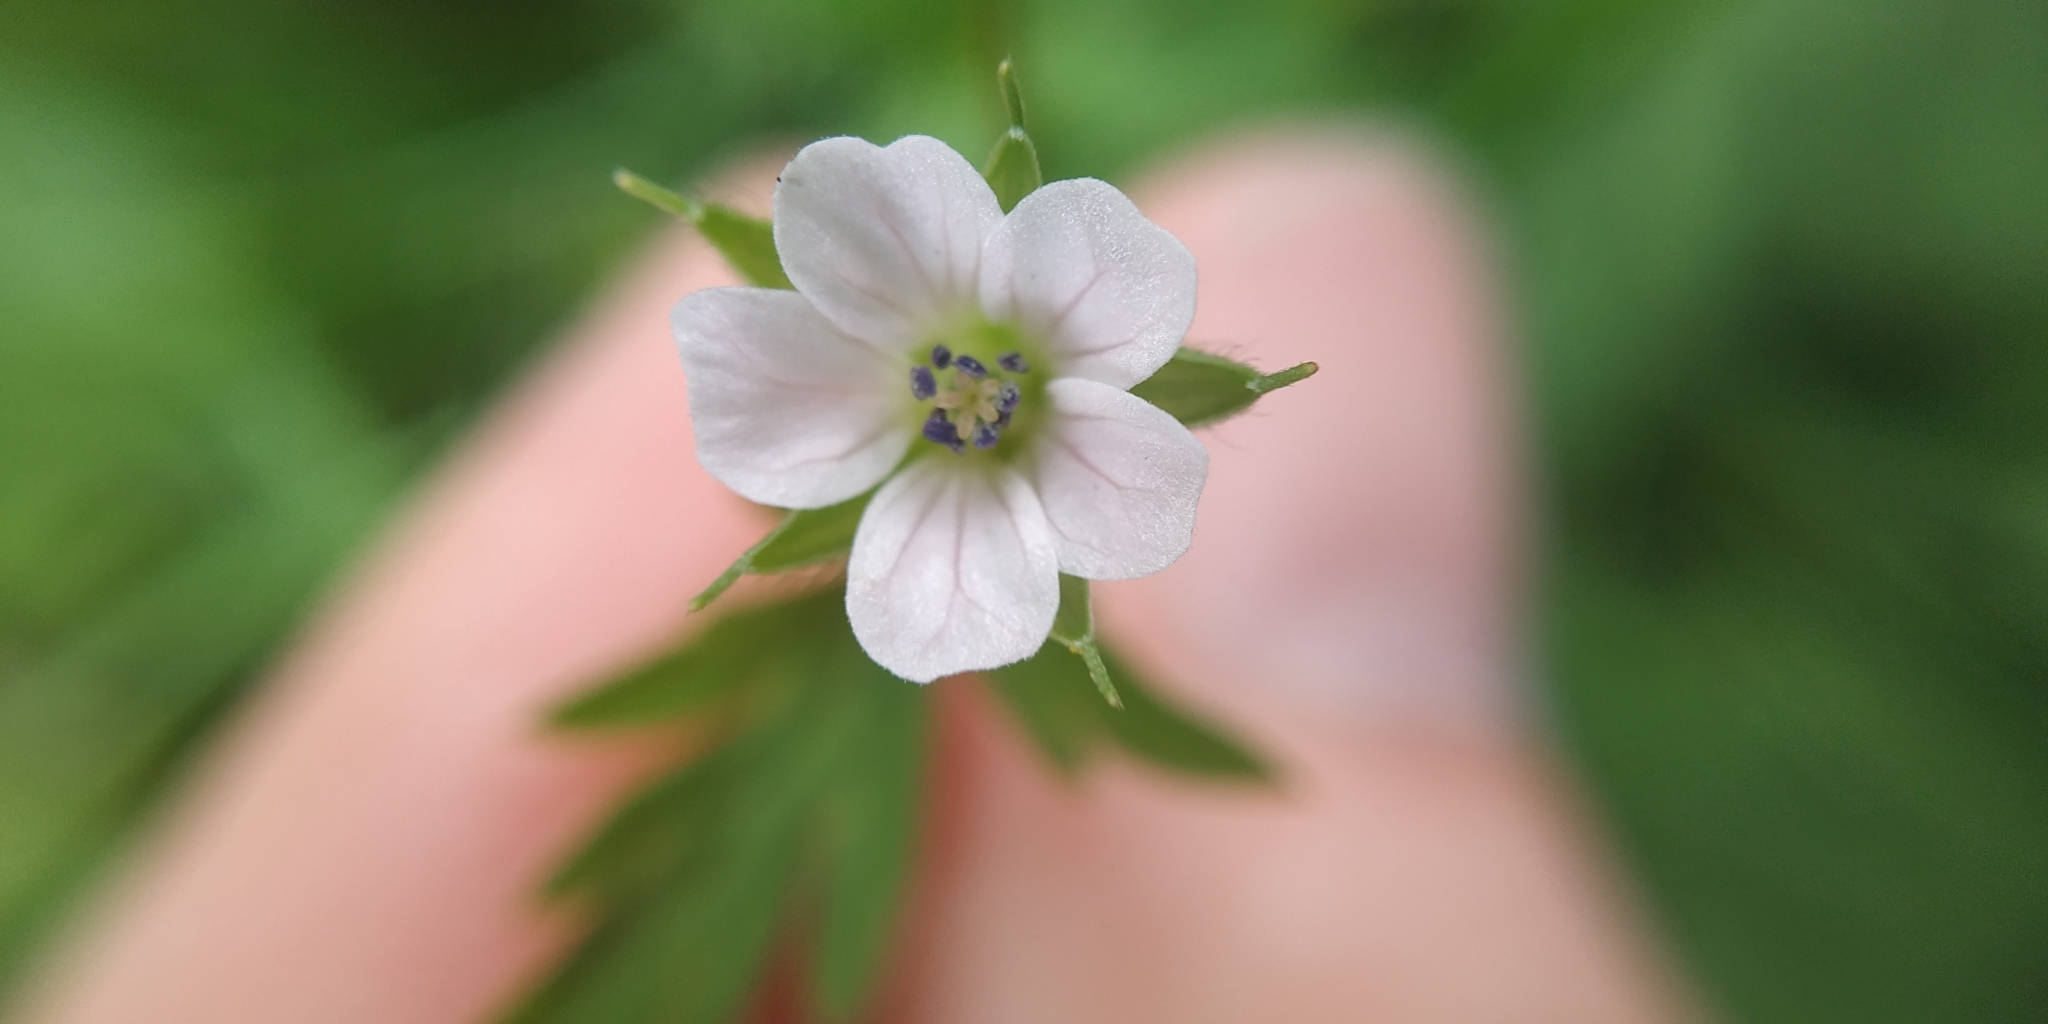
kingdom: Plantae
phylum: Tracheophyta
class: Magnoliopsida
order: Geraniales
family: Geraniaceae
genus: Geranium
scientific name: Geranium sibiricum
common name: Siberian crane's-bill
